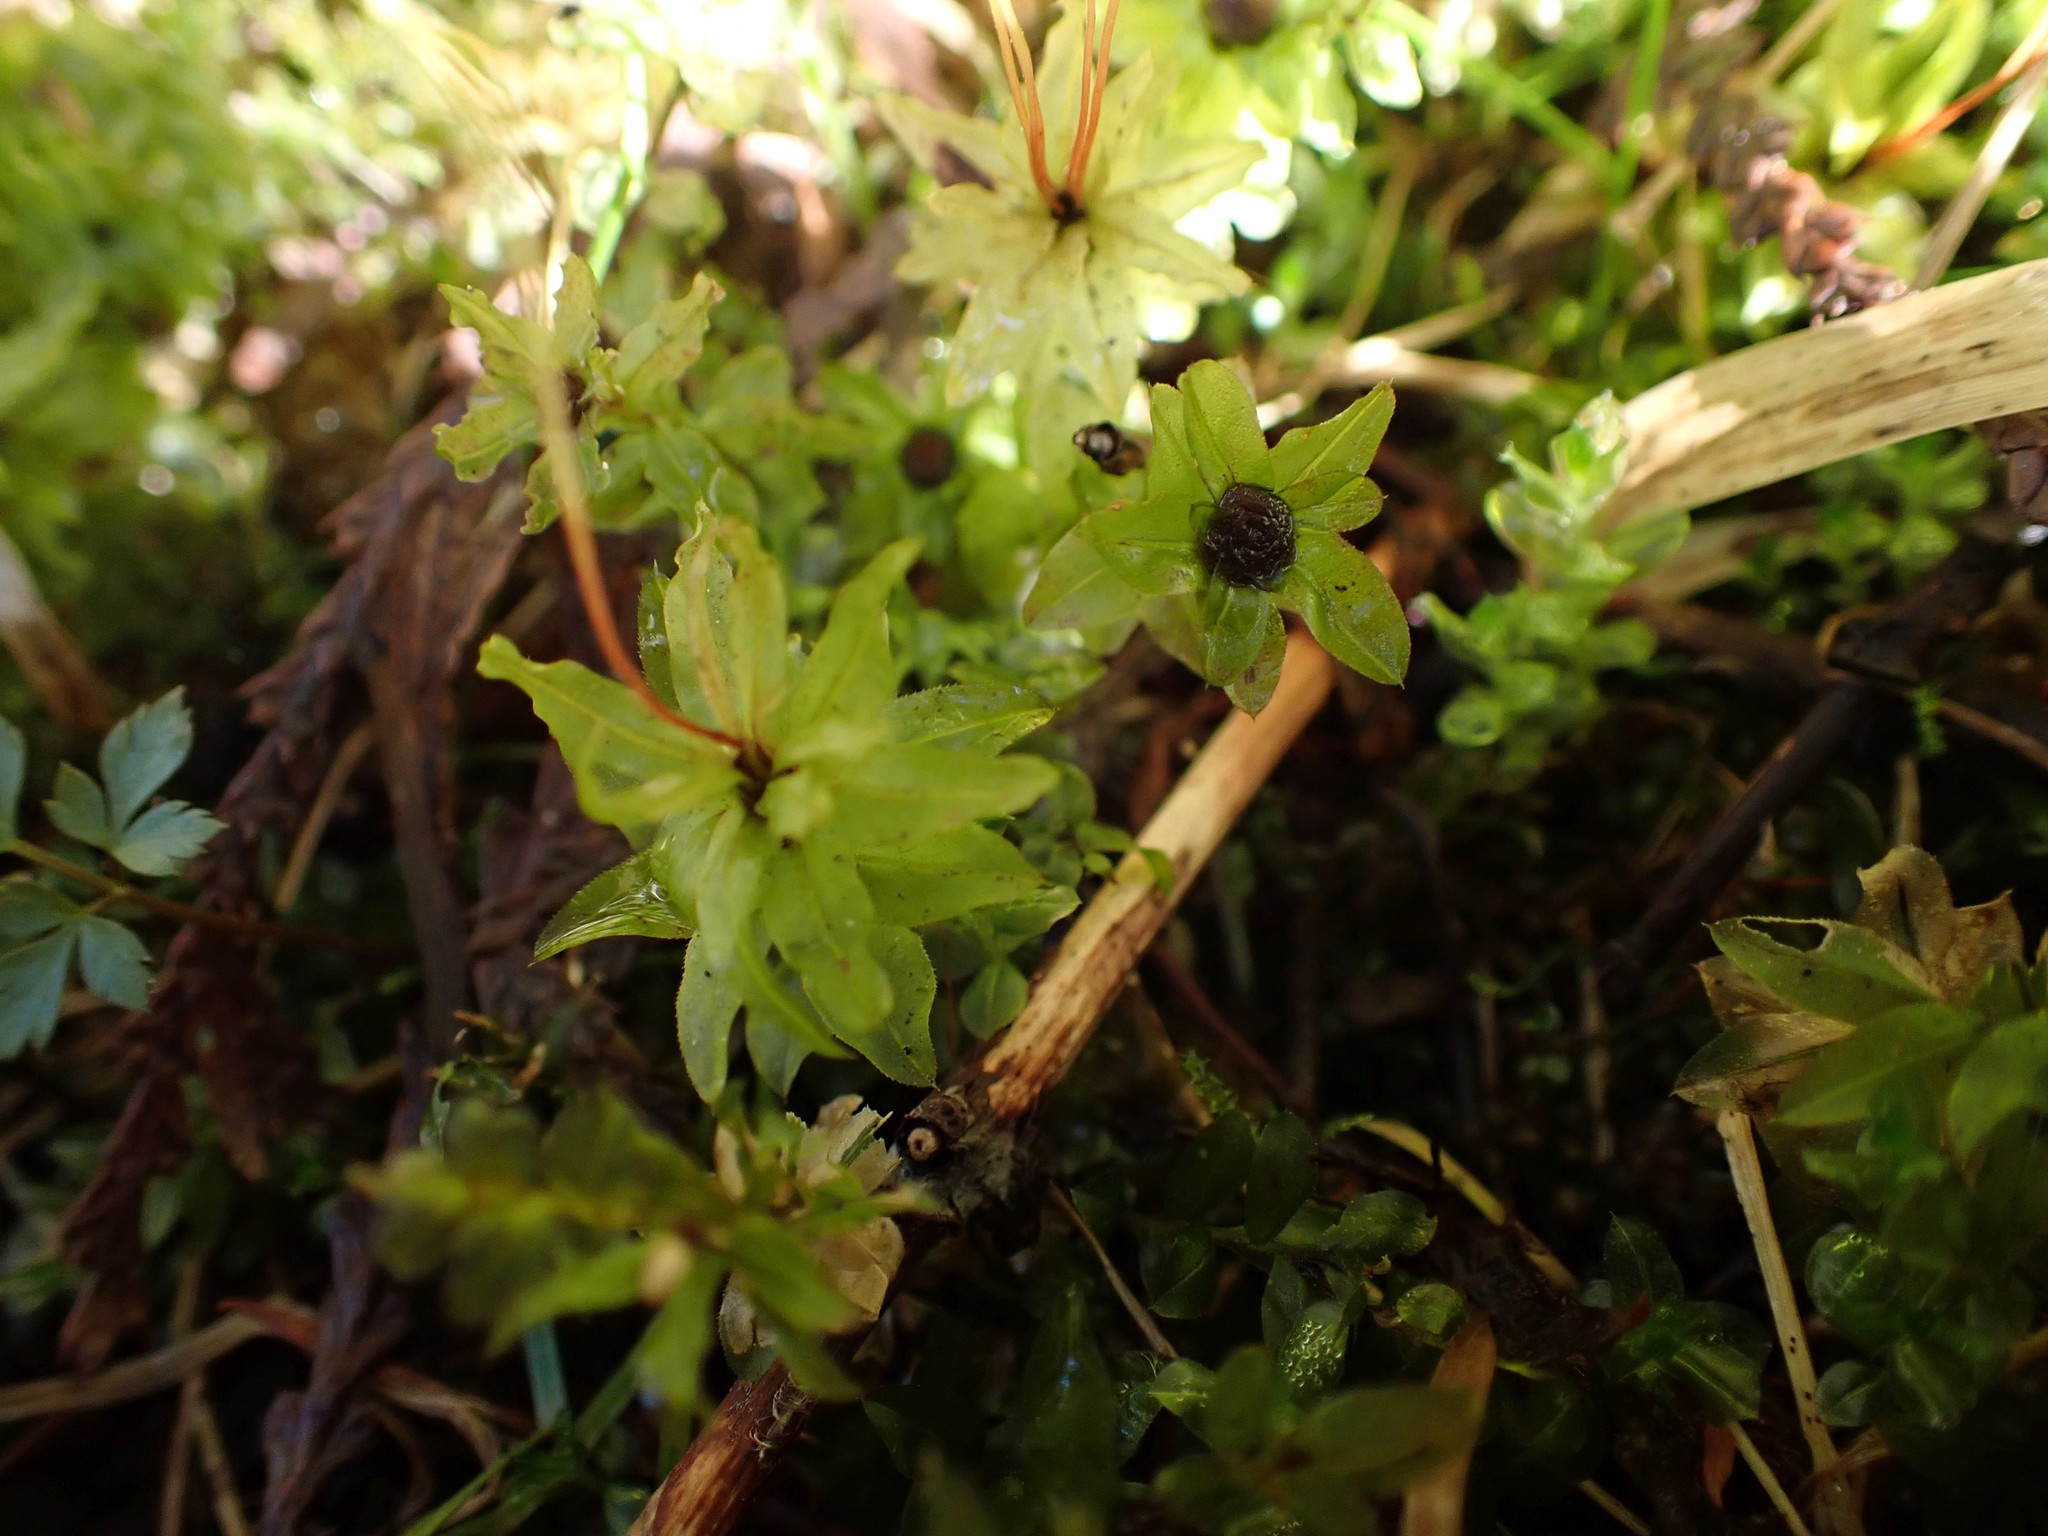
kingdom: Plantae
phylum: Bryophyta
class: Bryopsida
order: Bryales
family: Mniaceae
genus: Plagiomnium
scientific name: Plagiomnium insigne
